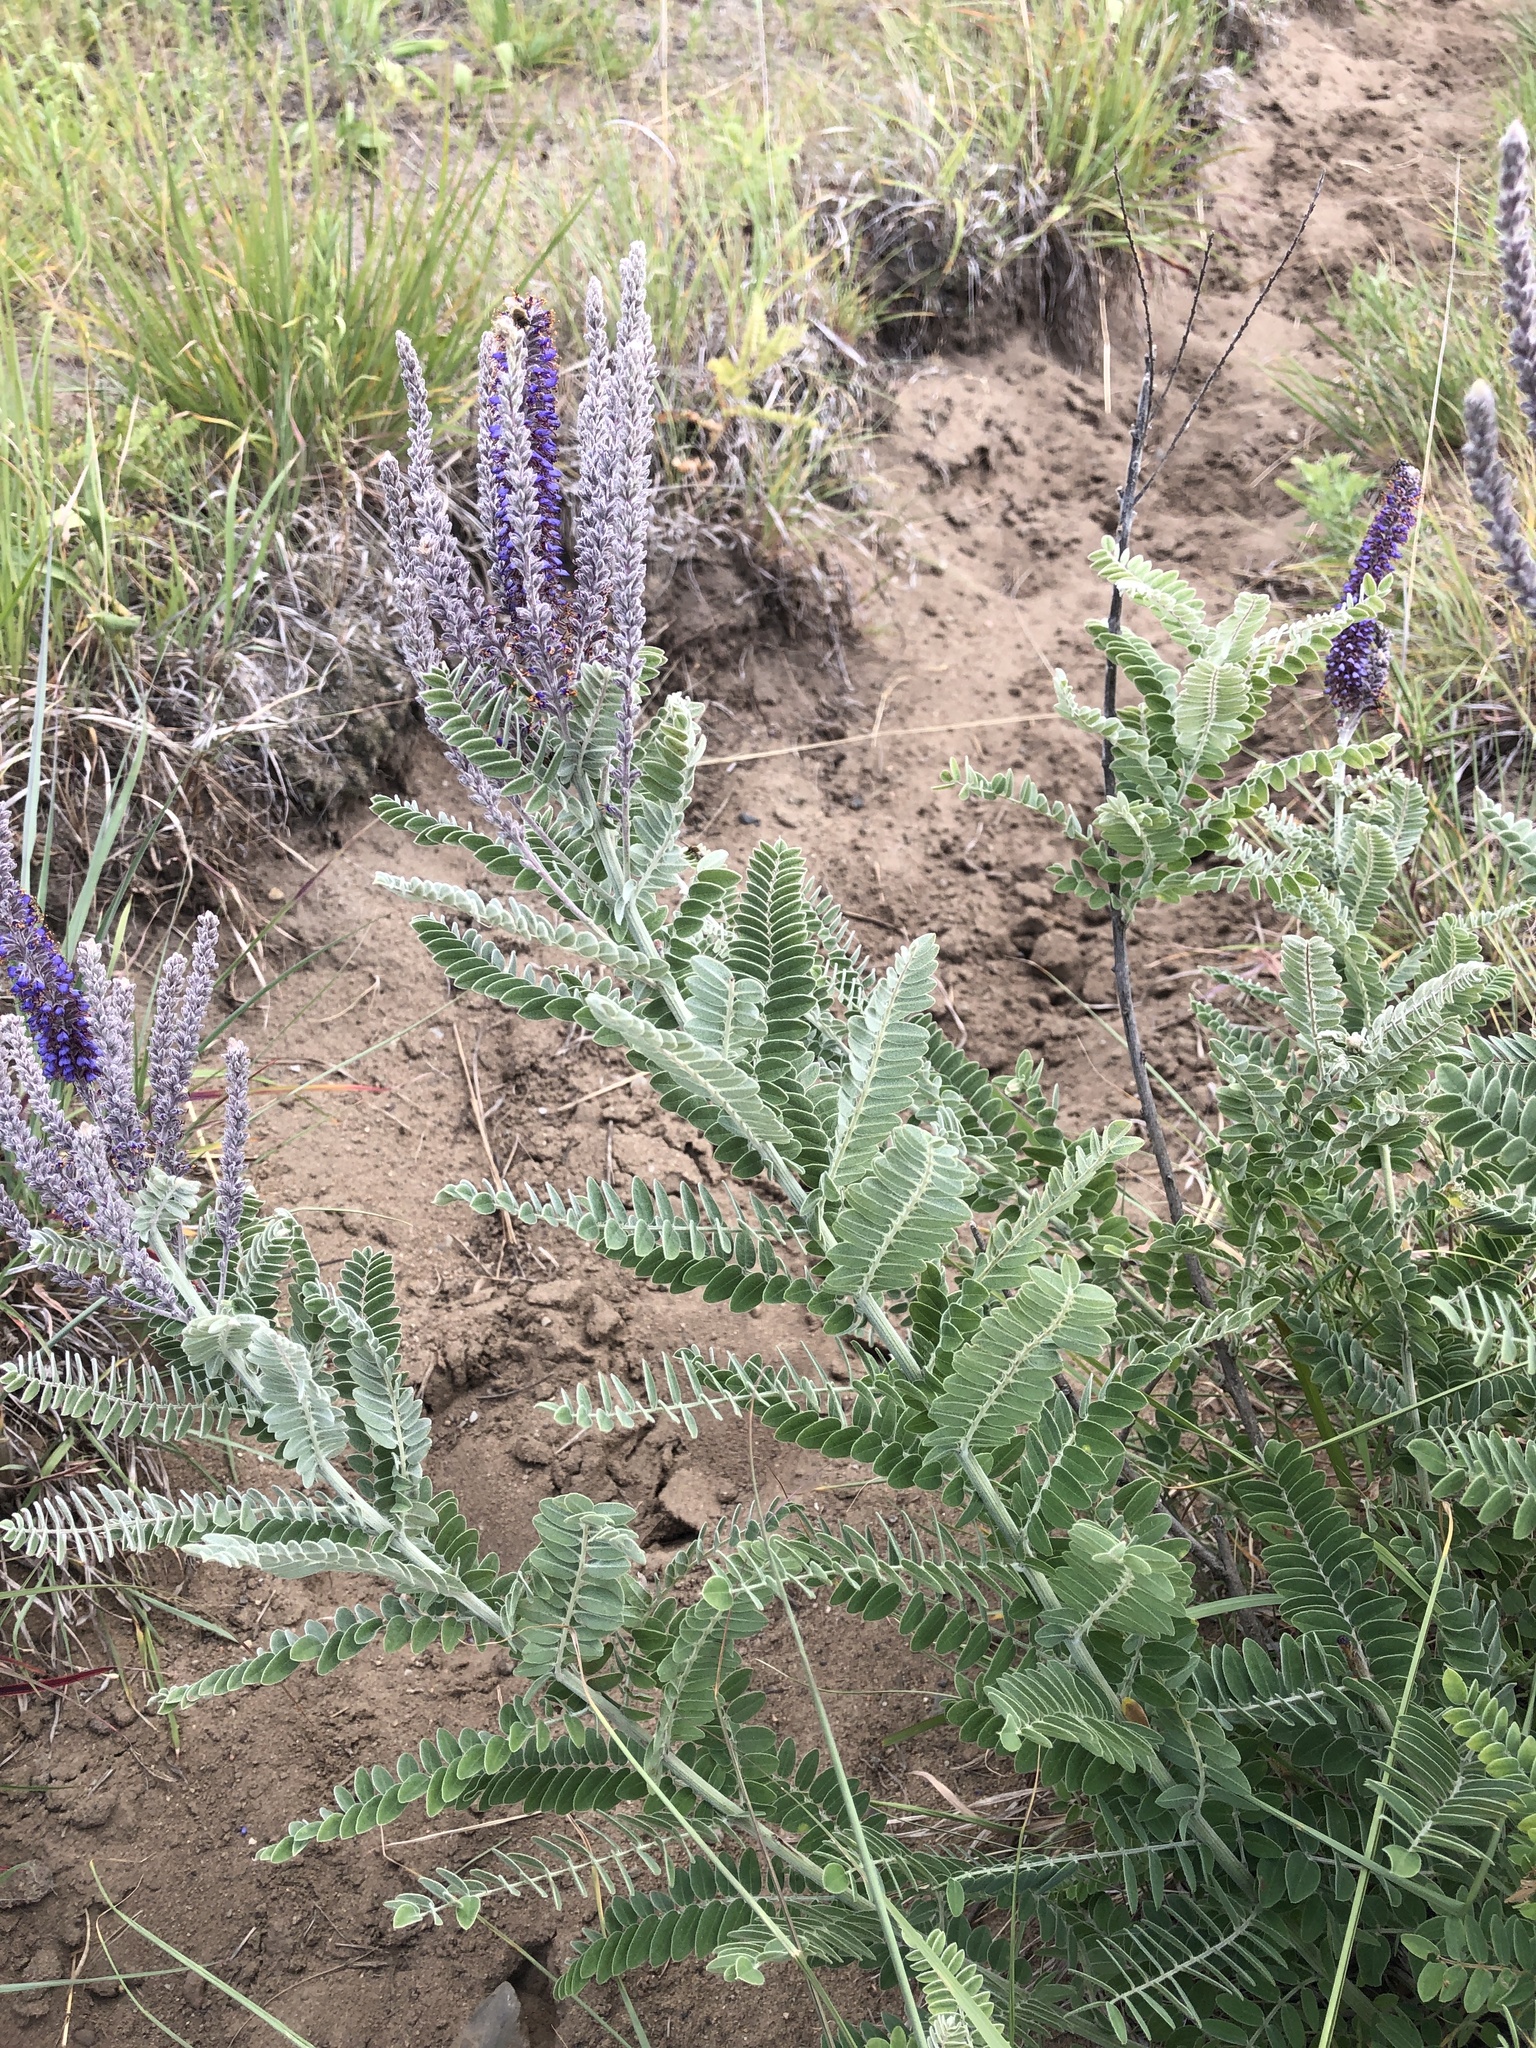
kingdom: Plantae
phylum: Tracheophyta
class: Magnoliopsida
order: Fabales
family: Fabaceae
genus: Amorpha
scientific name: Amorpha canescens
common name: Leadplant
